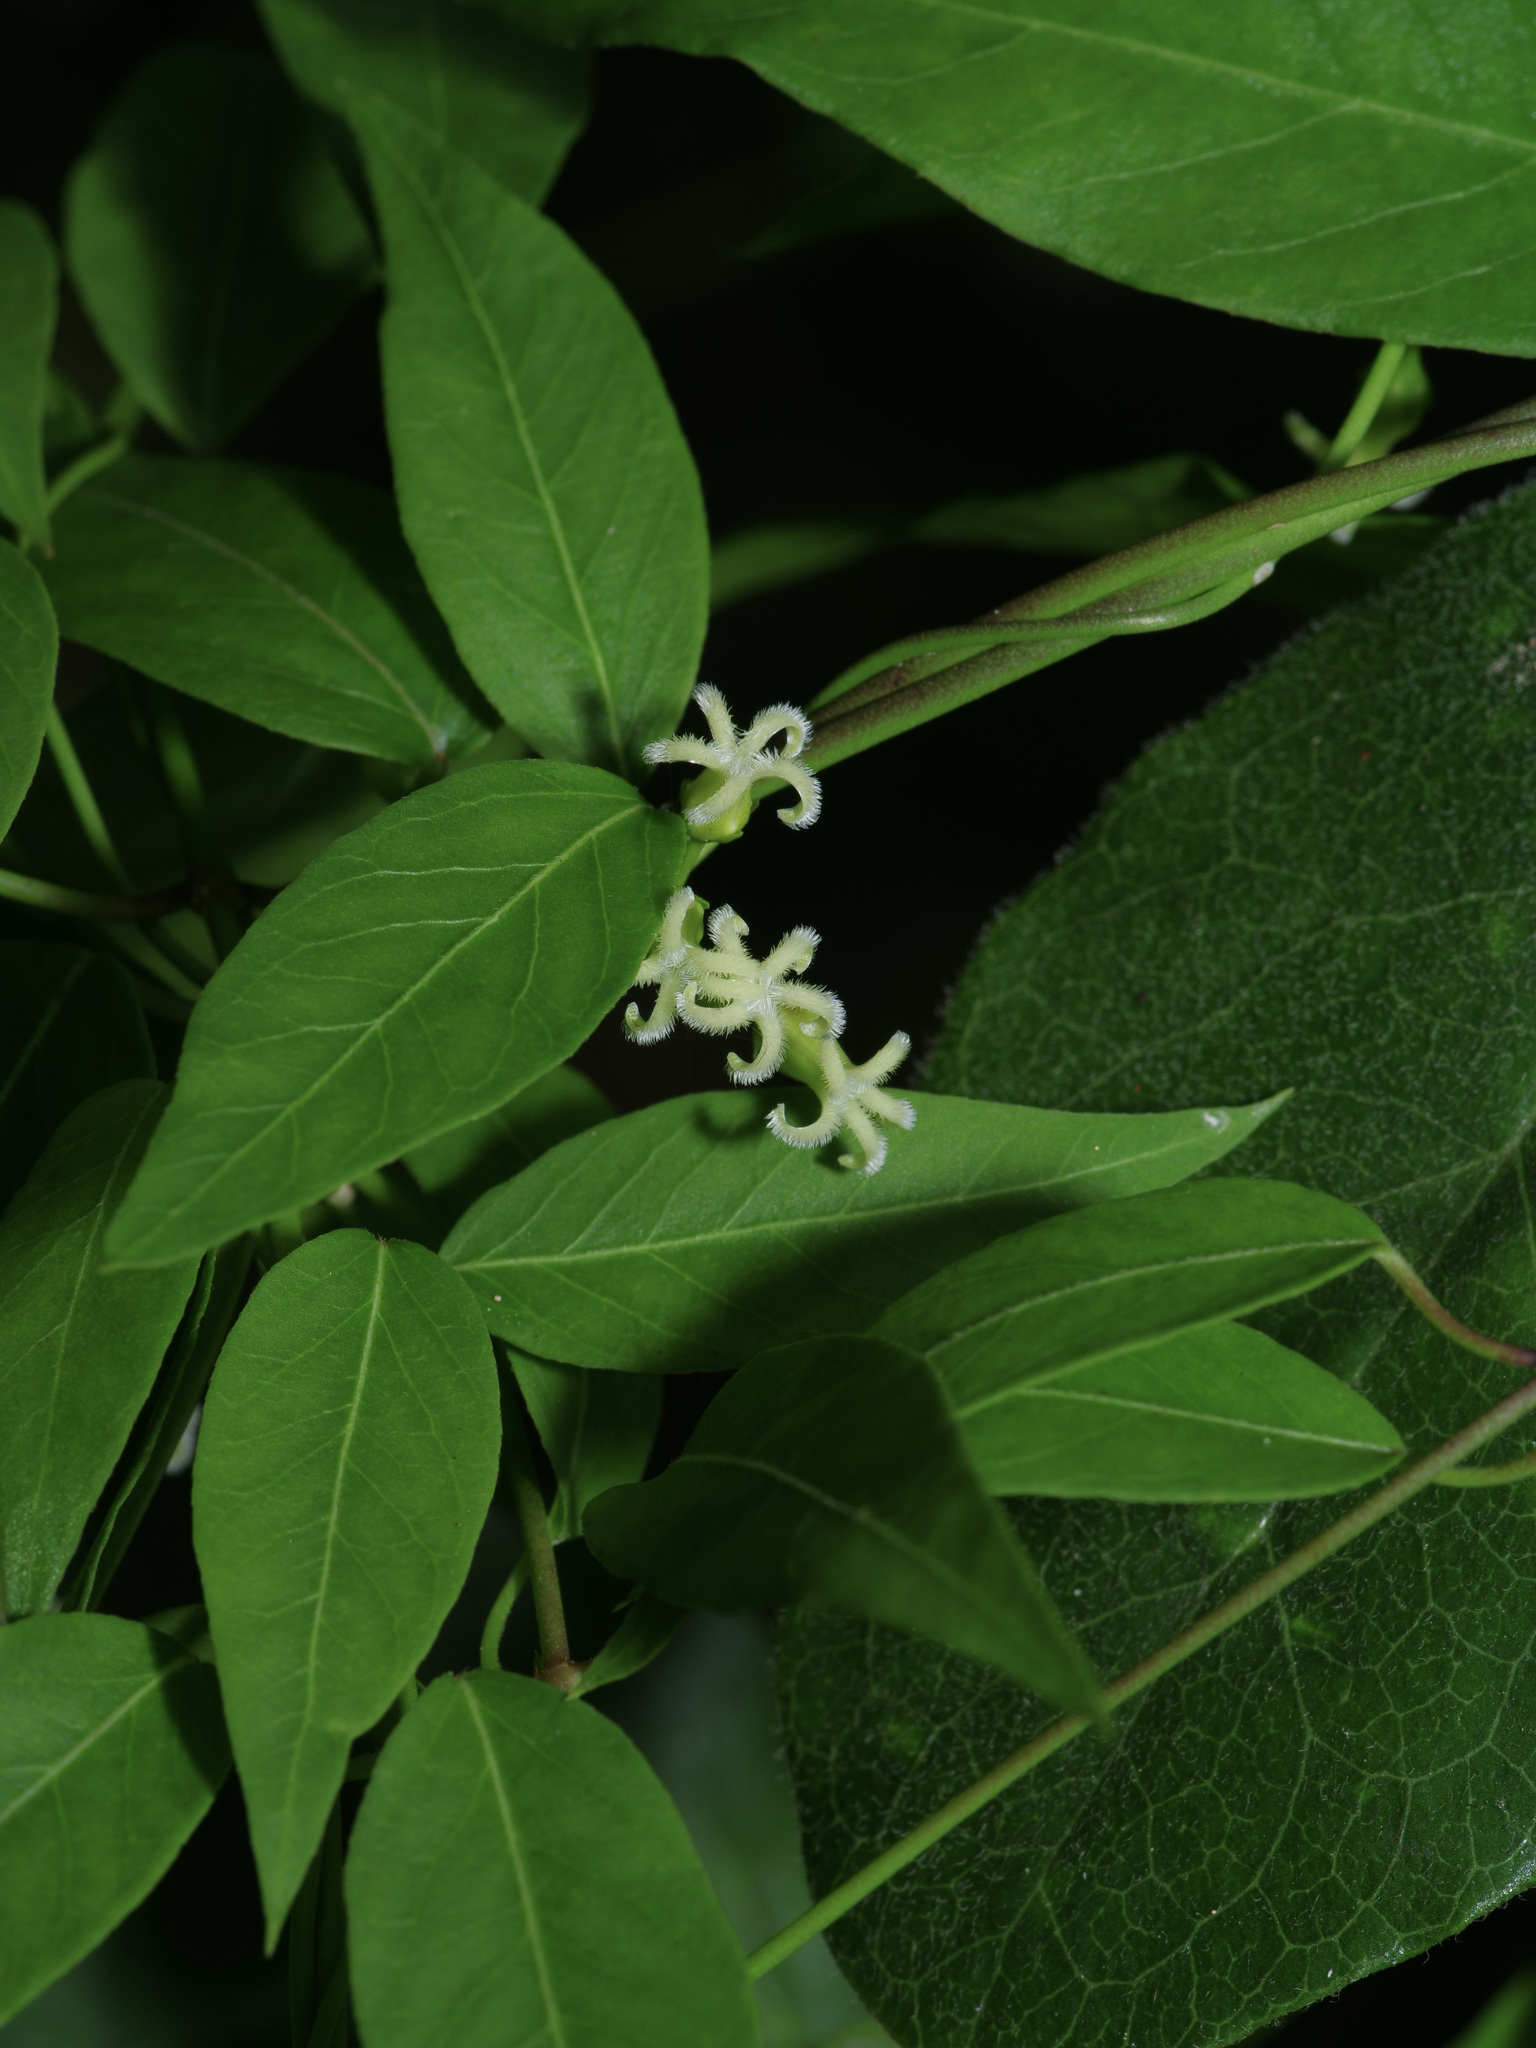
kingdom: Plantae
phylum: Tracheophyta
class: Magnoliopsida
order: Gentianales
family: Apocynaceae
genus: Metastelma
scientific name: Metastelma barbigerum
